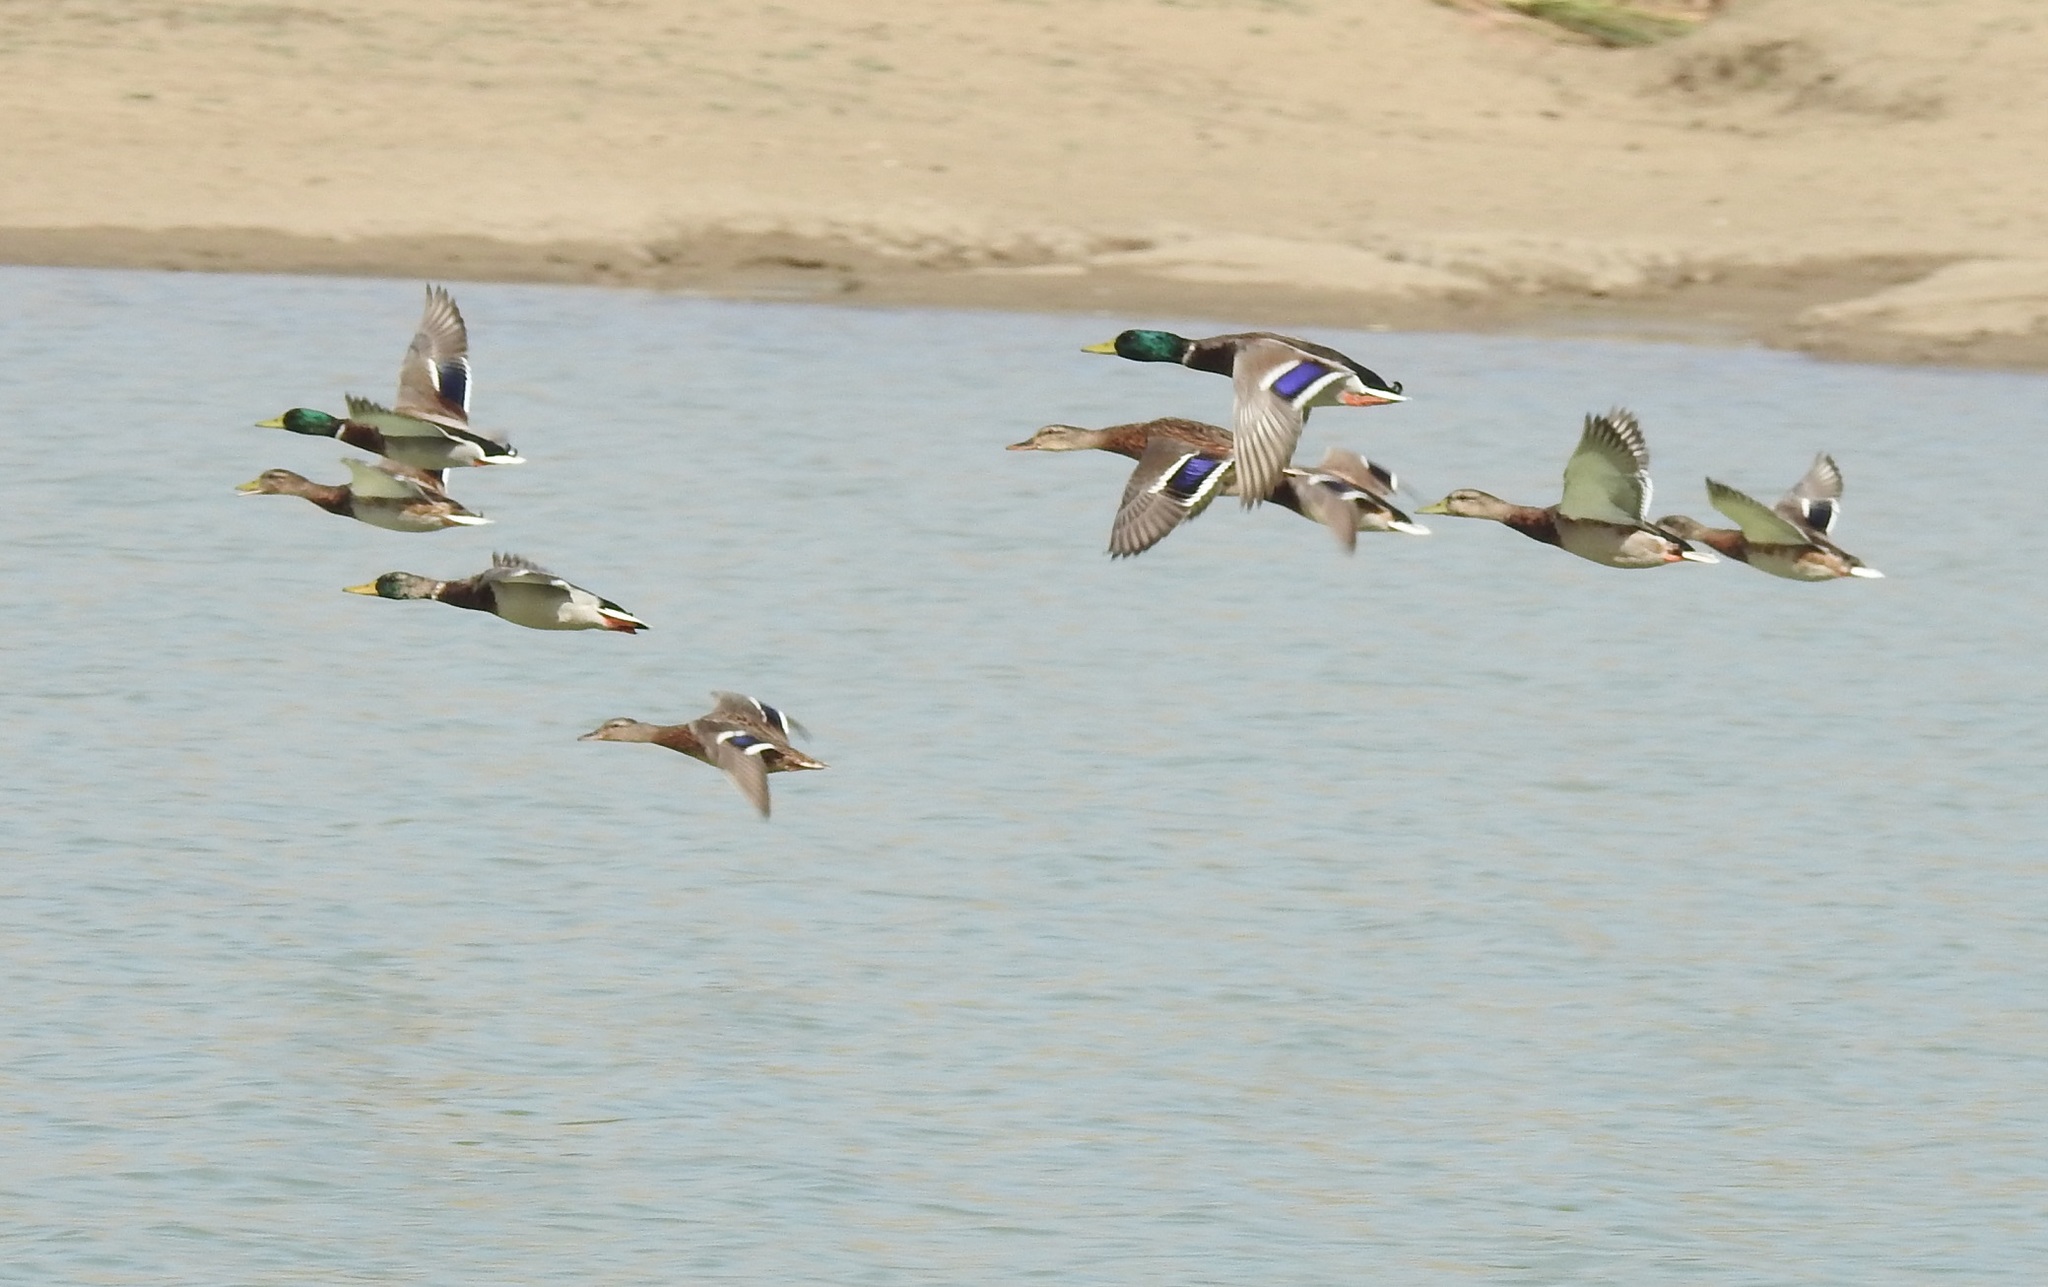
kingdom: Animalia
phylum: Chordata
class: Aves
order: Anseriformes
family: Anatidae
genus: Anas
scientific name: Anas platyrhynchos
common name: Mallard
